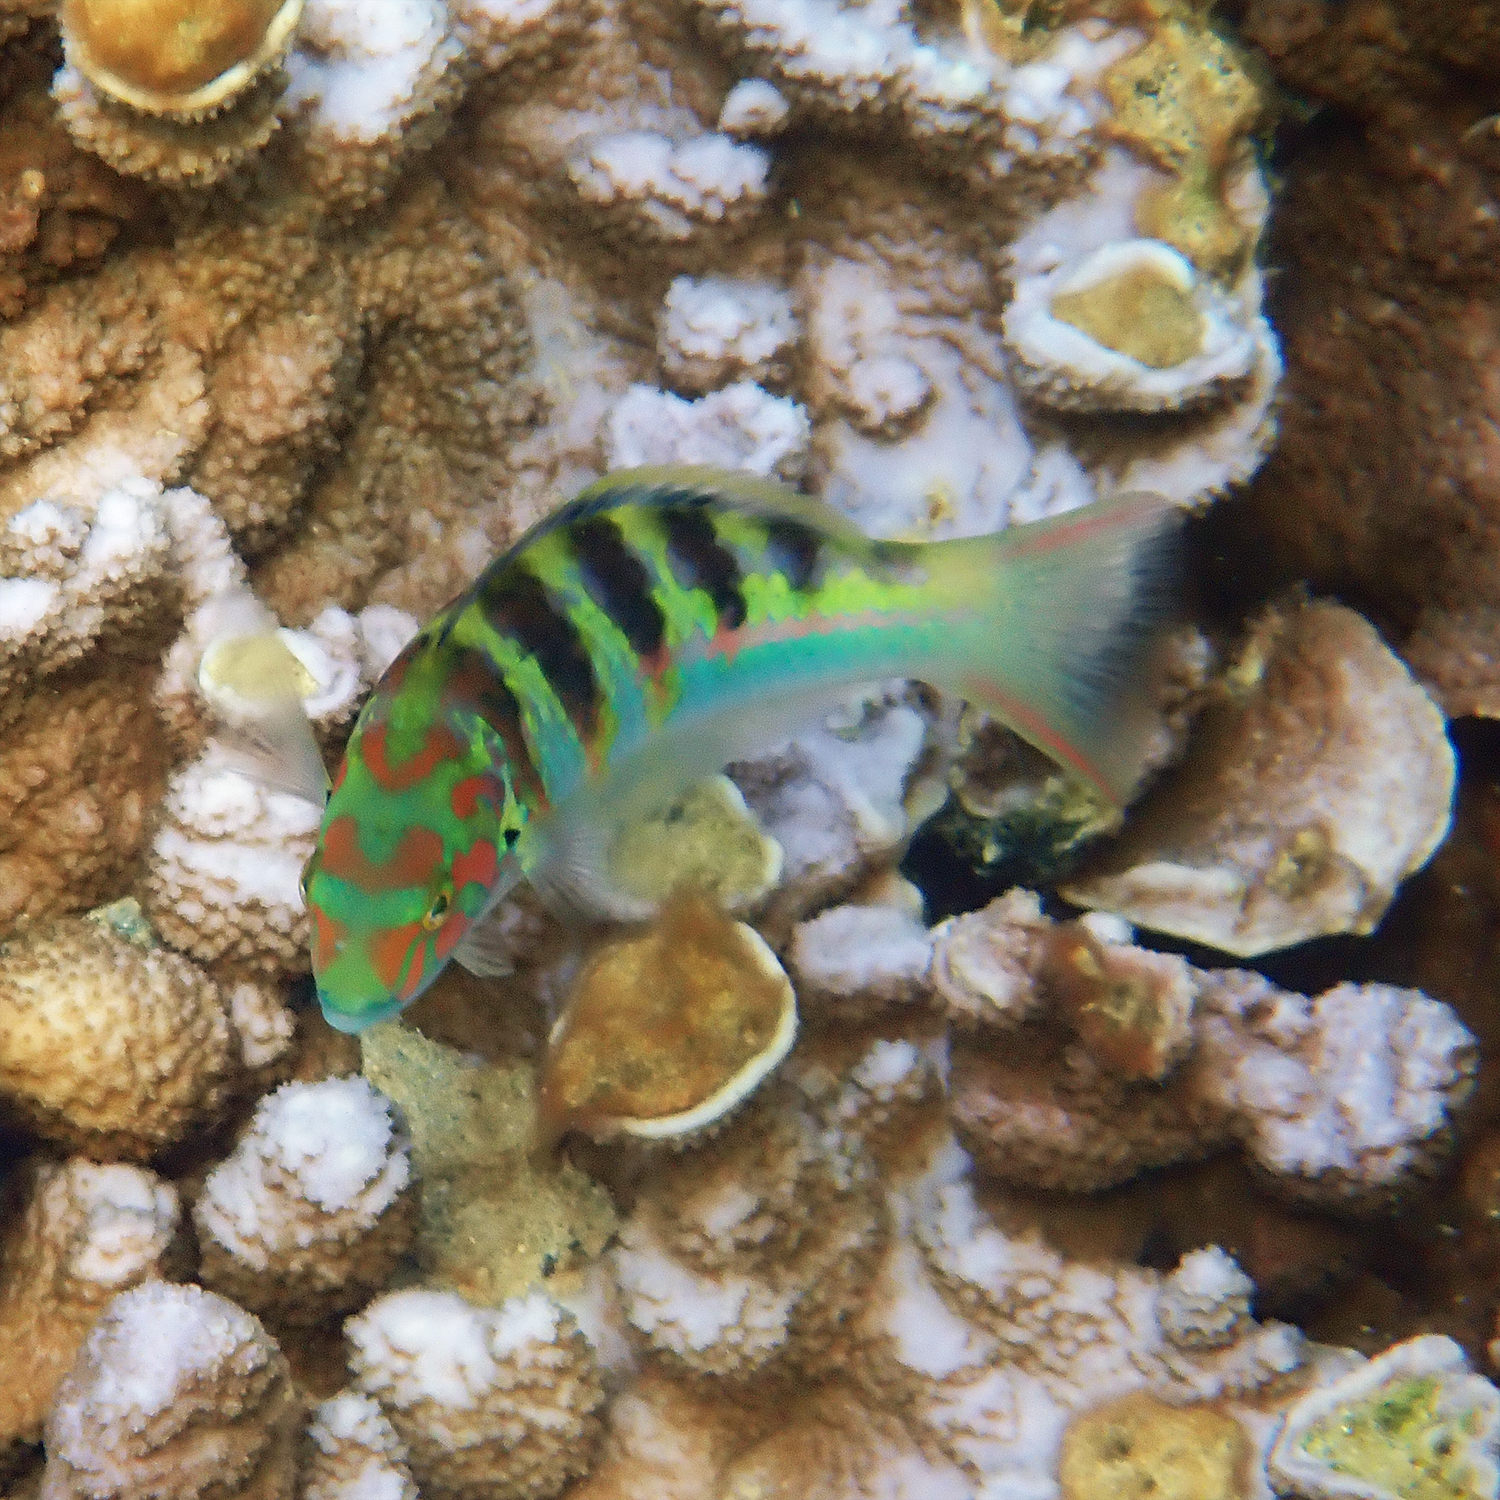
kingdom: Animalia
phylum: Chordata
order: Perciformes
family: Labridae
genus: Thalassoma
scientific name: Thalassoma hardwicke
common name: Sixbar wrasse
